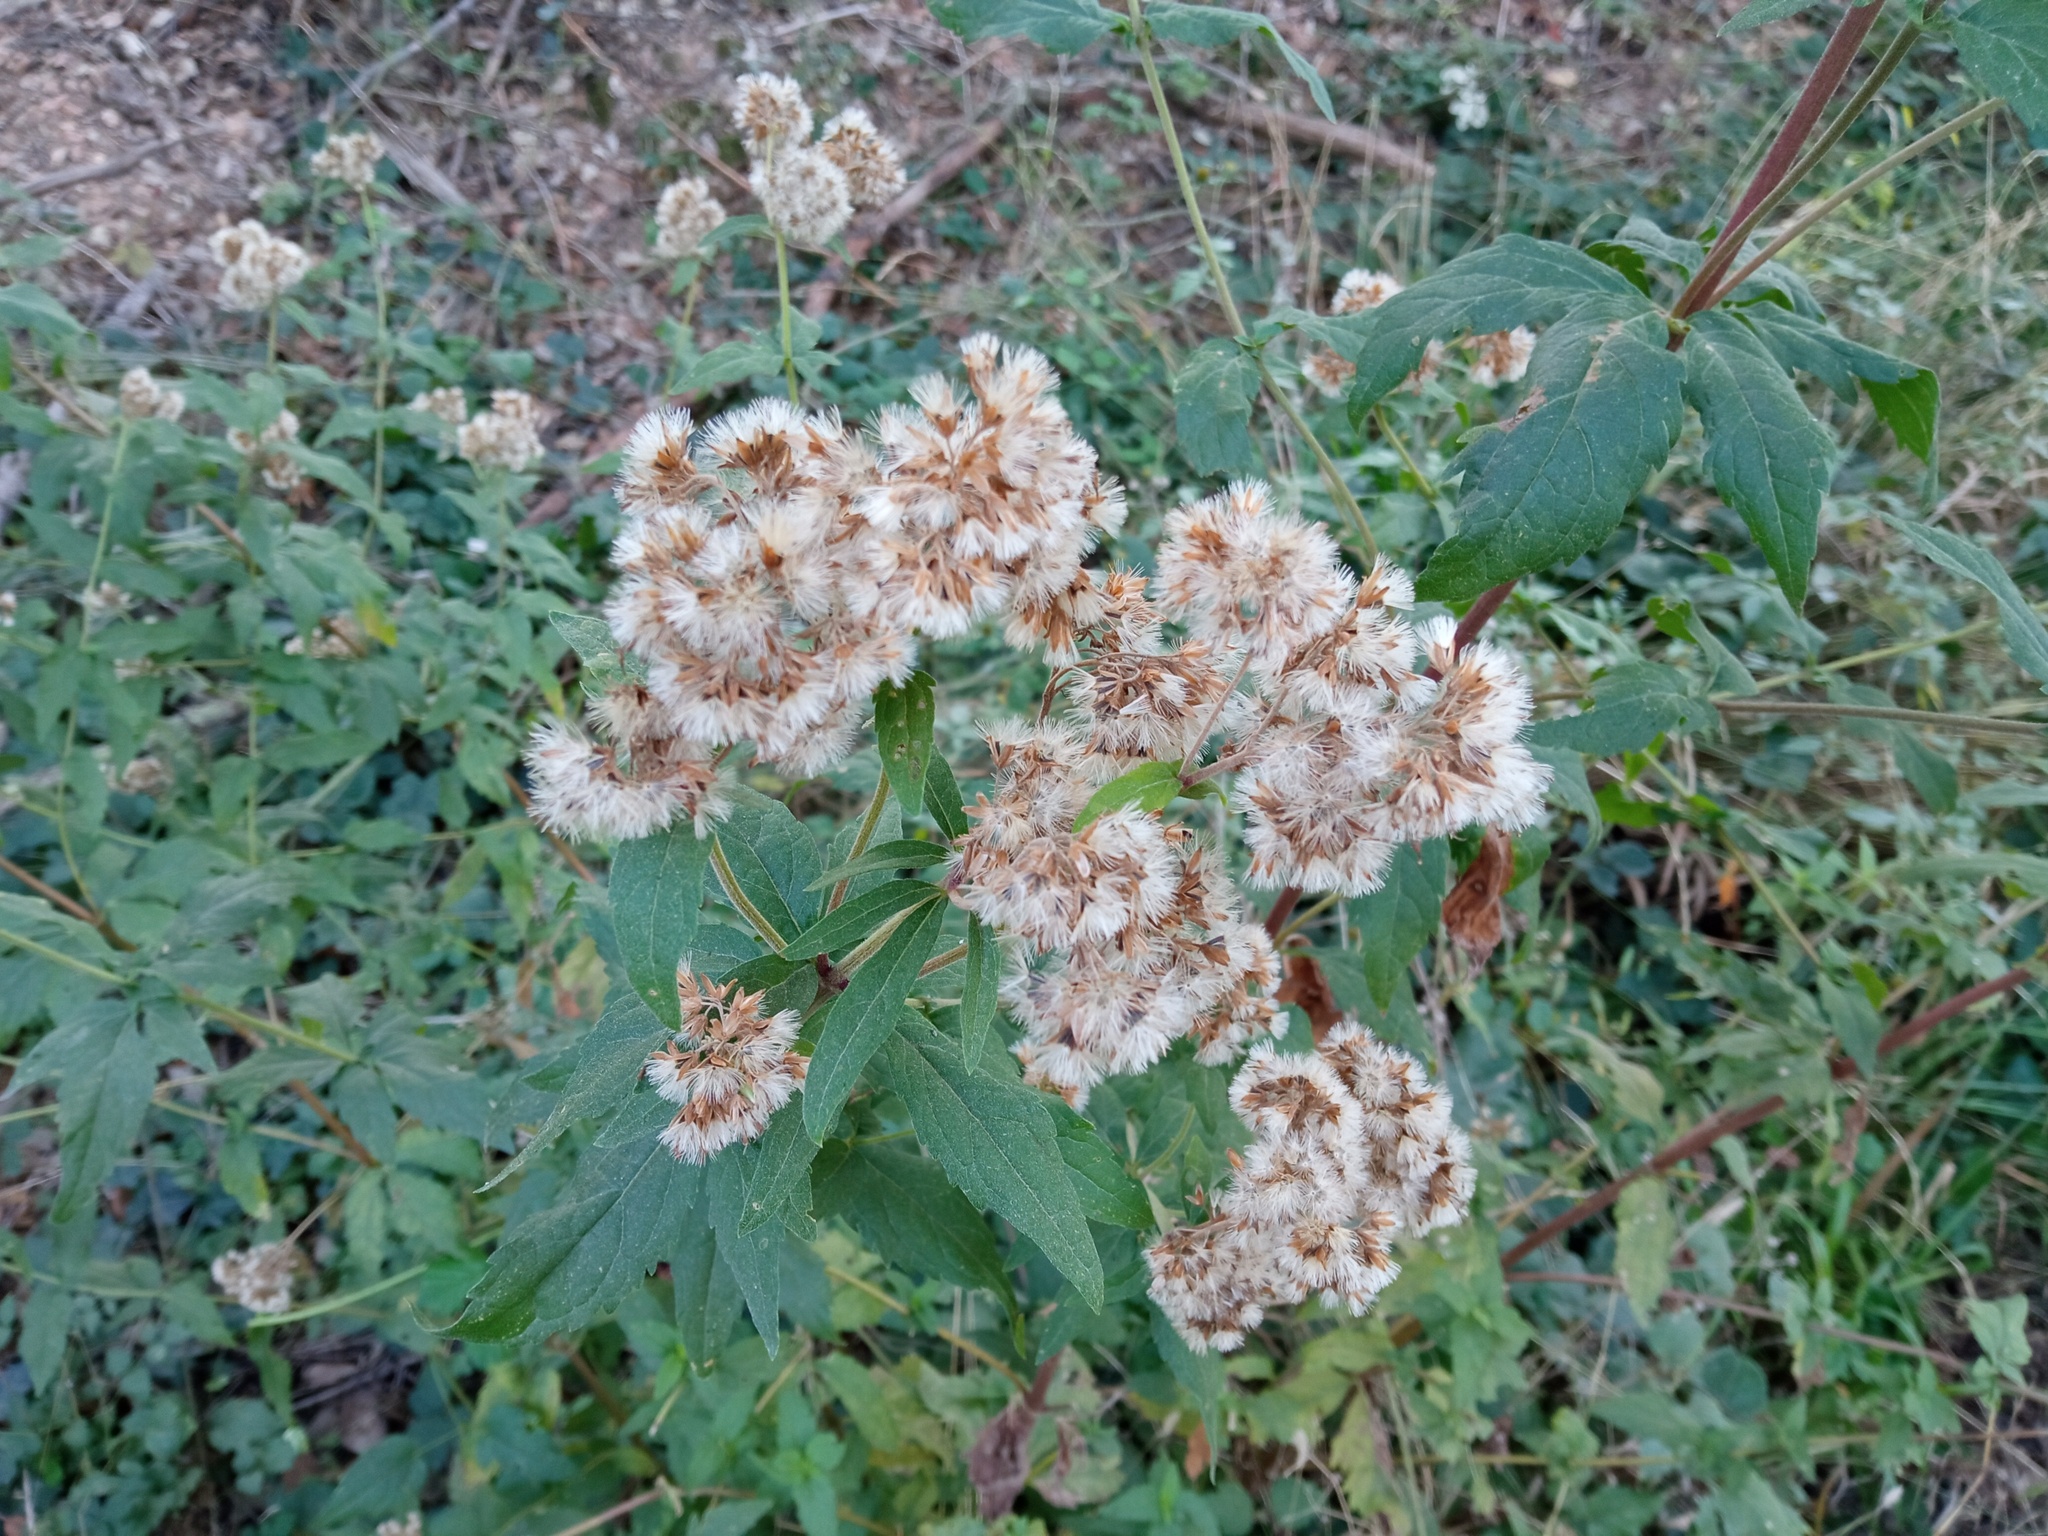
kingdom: Plantae
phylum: Tracheophyta
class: Magnoliopsida
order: Asterales
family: Asteraceae
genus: Eupatorium
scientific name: Eupatorium cannabinum
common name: Hemp-agrimony
